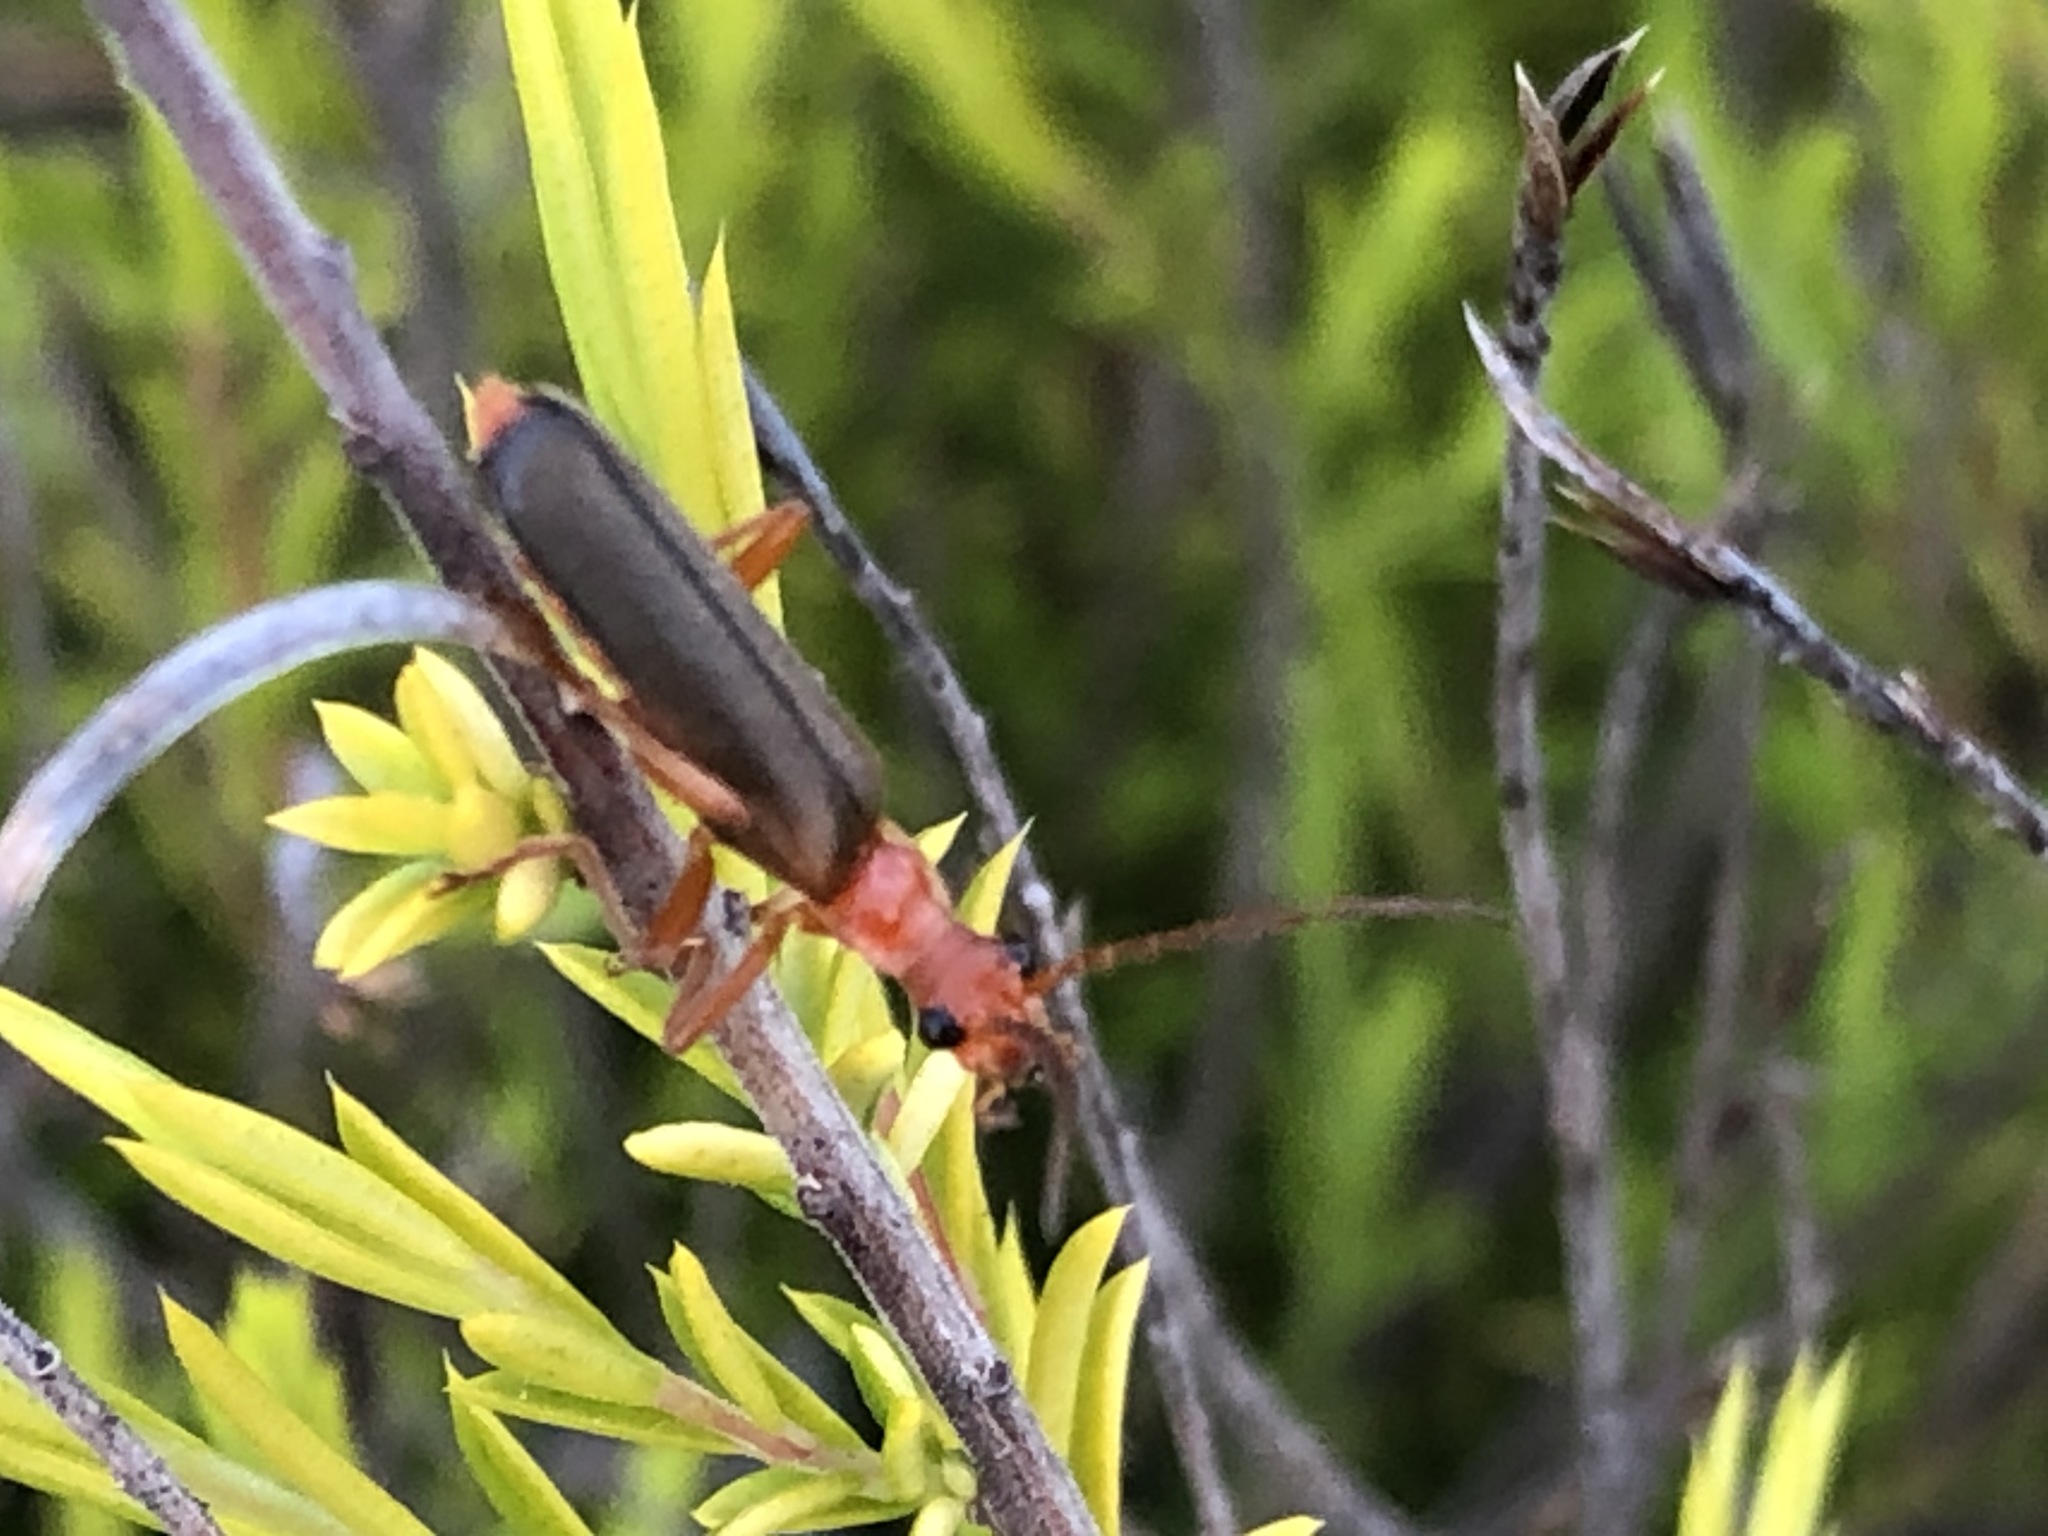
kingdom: Animalia
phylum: Arthropoda
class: Insecta
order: Coleoptera
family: Cantharidae
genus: Podabrus
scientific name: Podabrus pruinosus
